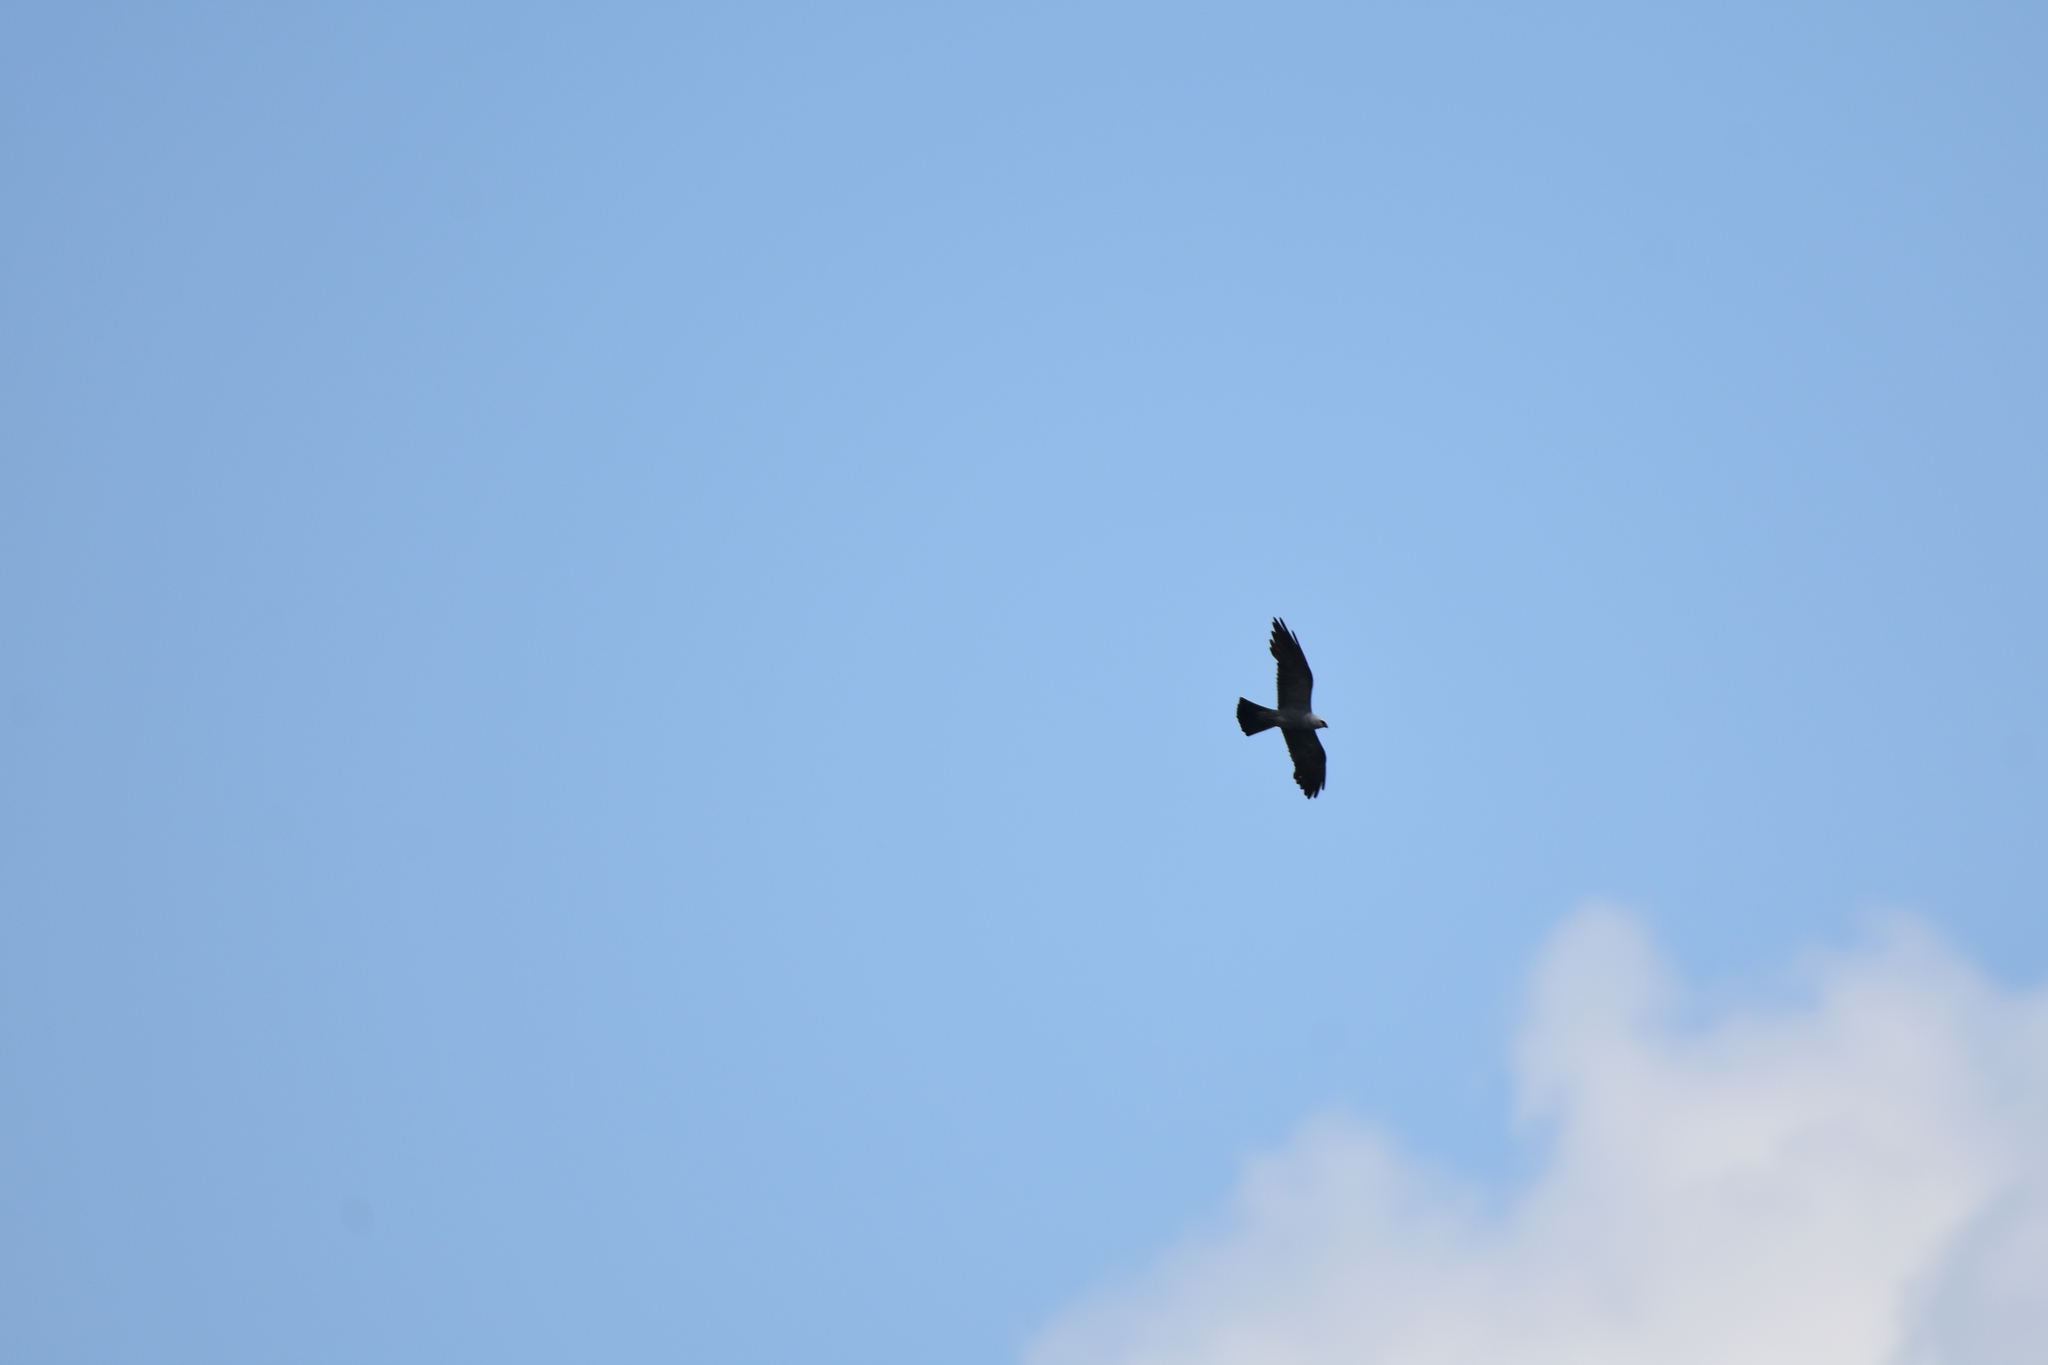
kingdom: Animalia
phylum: Chordata
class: Aves
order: Accipitriformes
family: Accipitridae
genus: Ictinia
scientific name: Ictinia mississippiensis
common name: Mississippi kite
